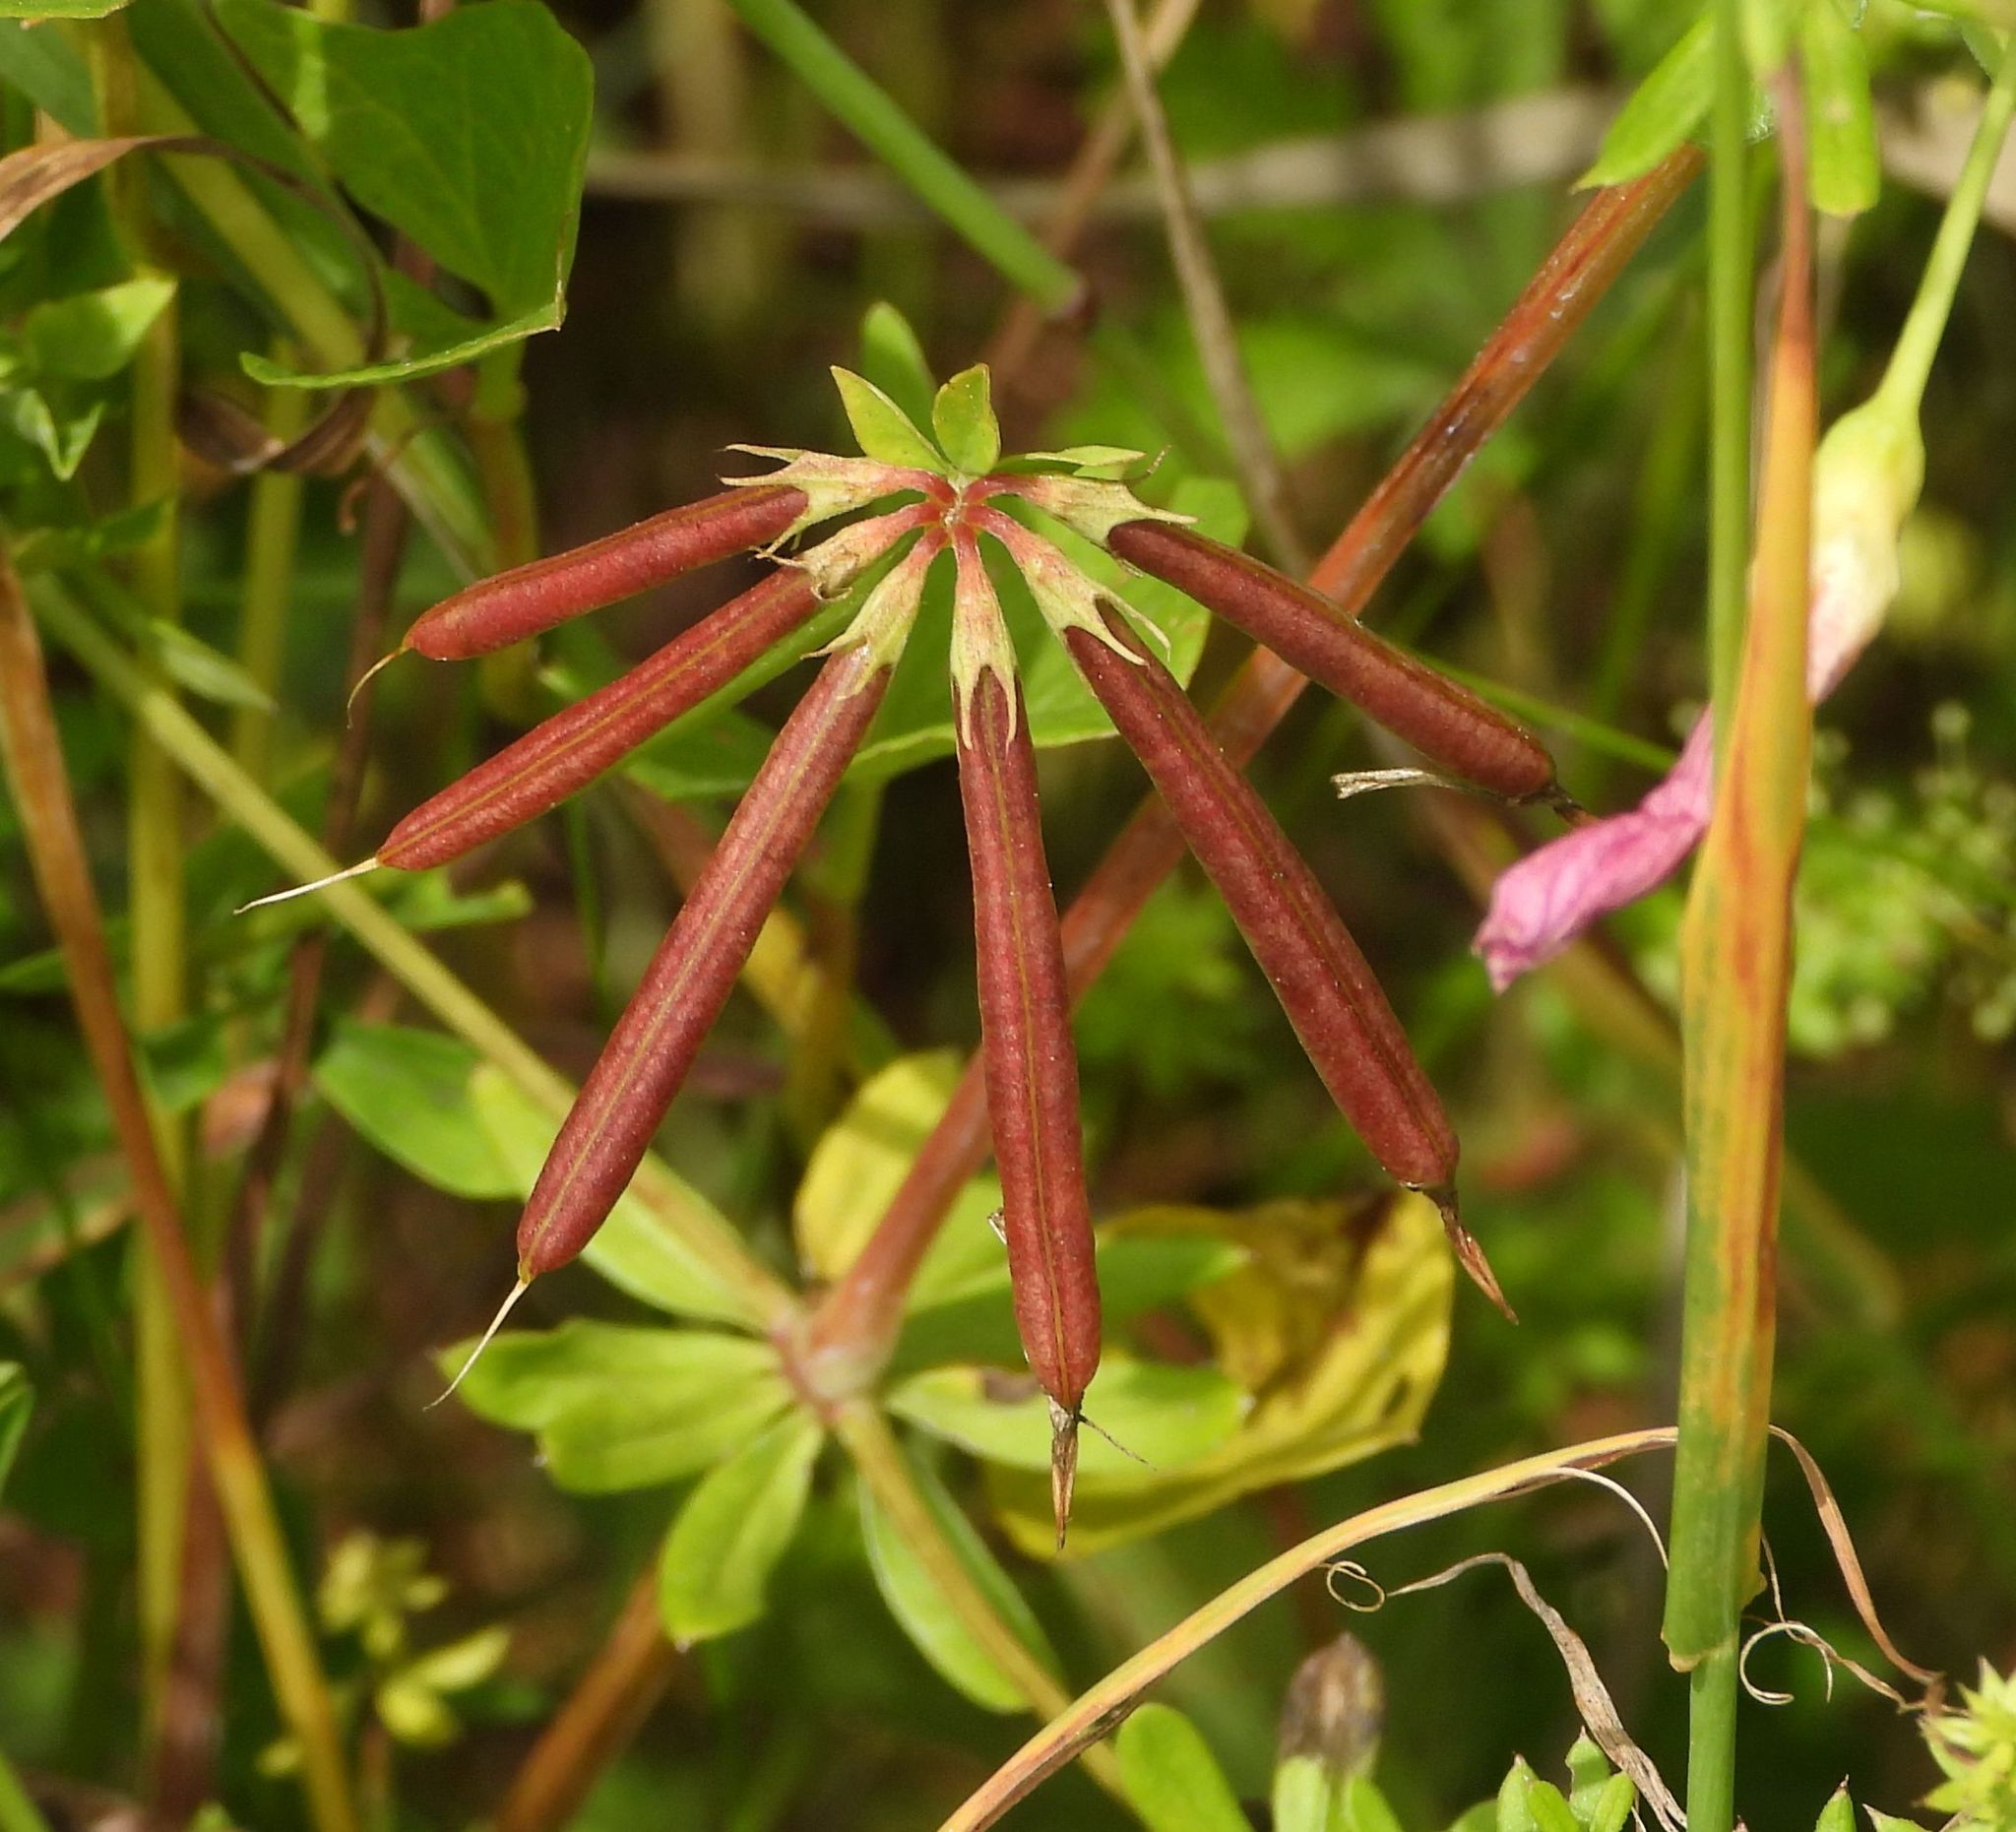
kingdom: Plantae
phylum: Tracheophyta
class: Magnoliopsida
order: Fabales
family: Fabaceae
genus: Lotus
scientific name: Lotus corniculatus
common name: Common bird's-foot-trefoil
